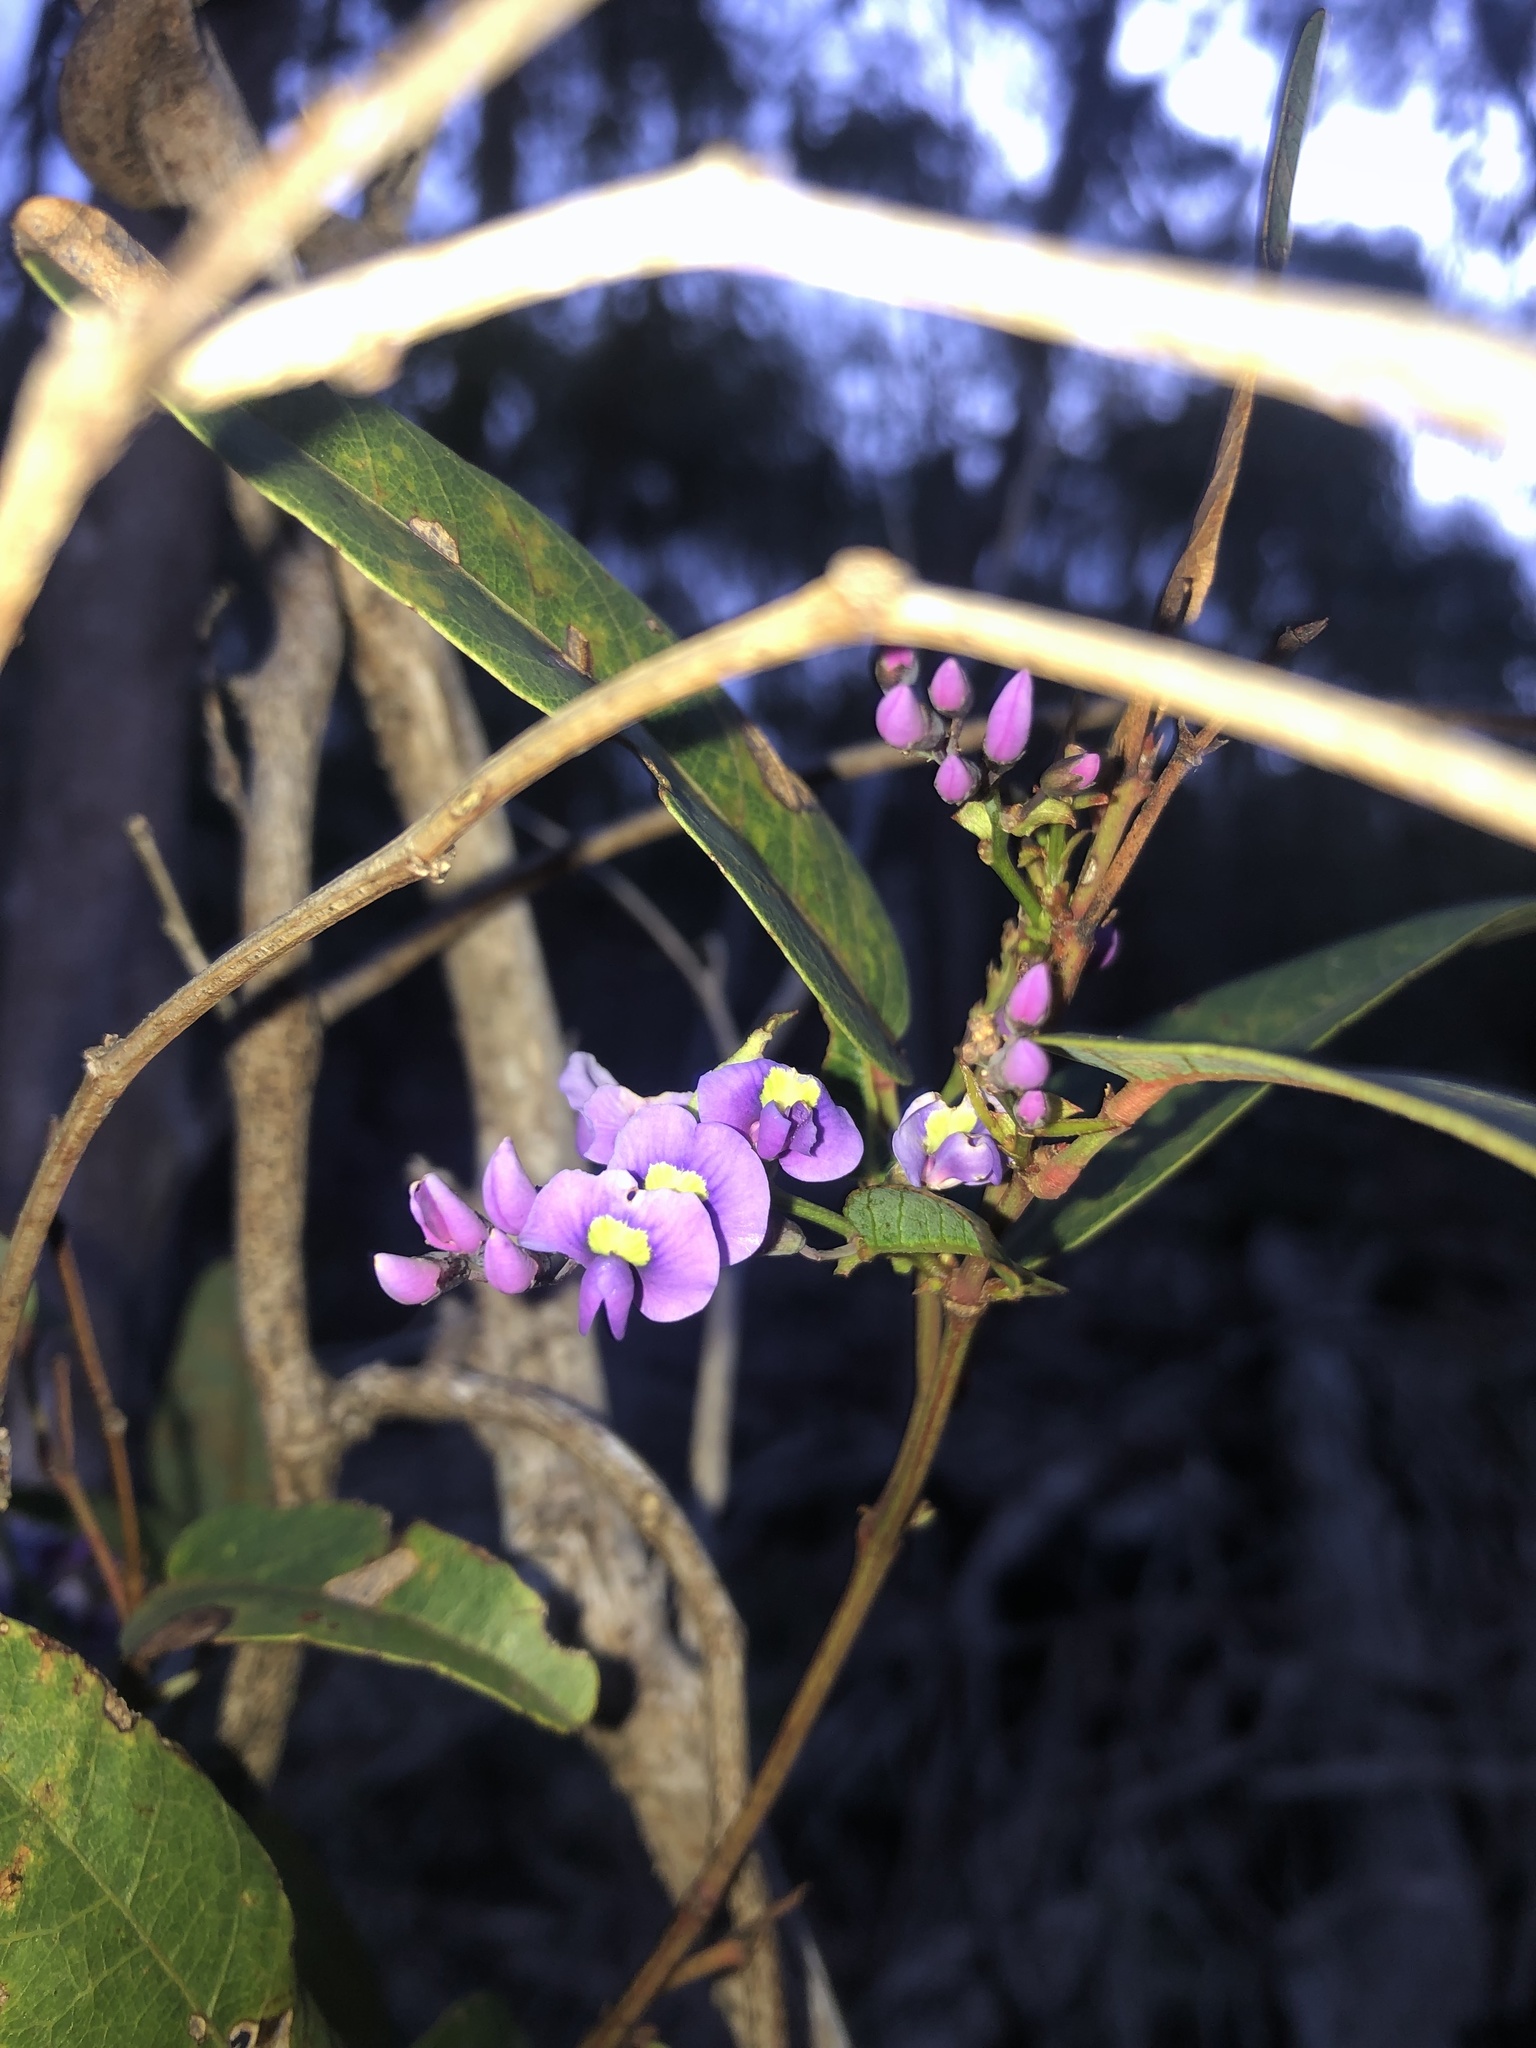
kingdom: Plantae
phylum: Tracheophyta
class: Magnoliopsida
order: Fabales
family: Fabaceae
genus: Hardenbergia
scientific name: Hardenbergia violacea
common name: Coral-pea
